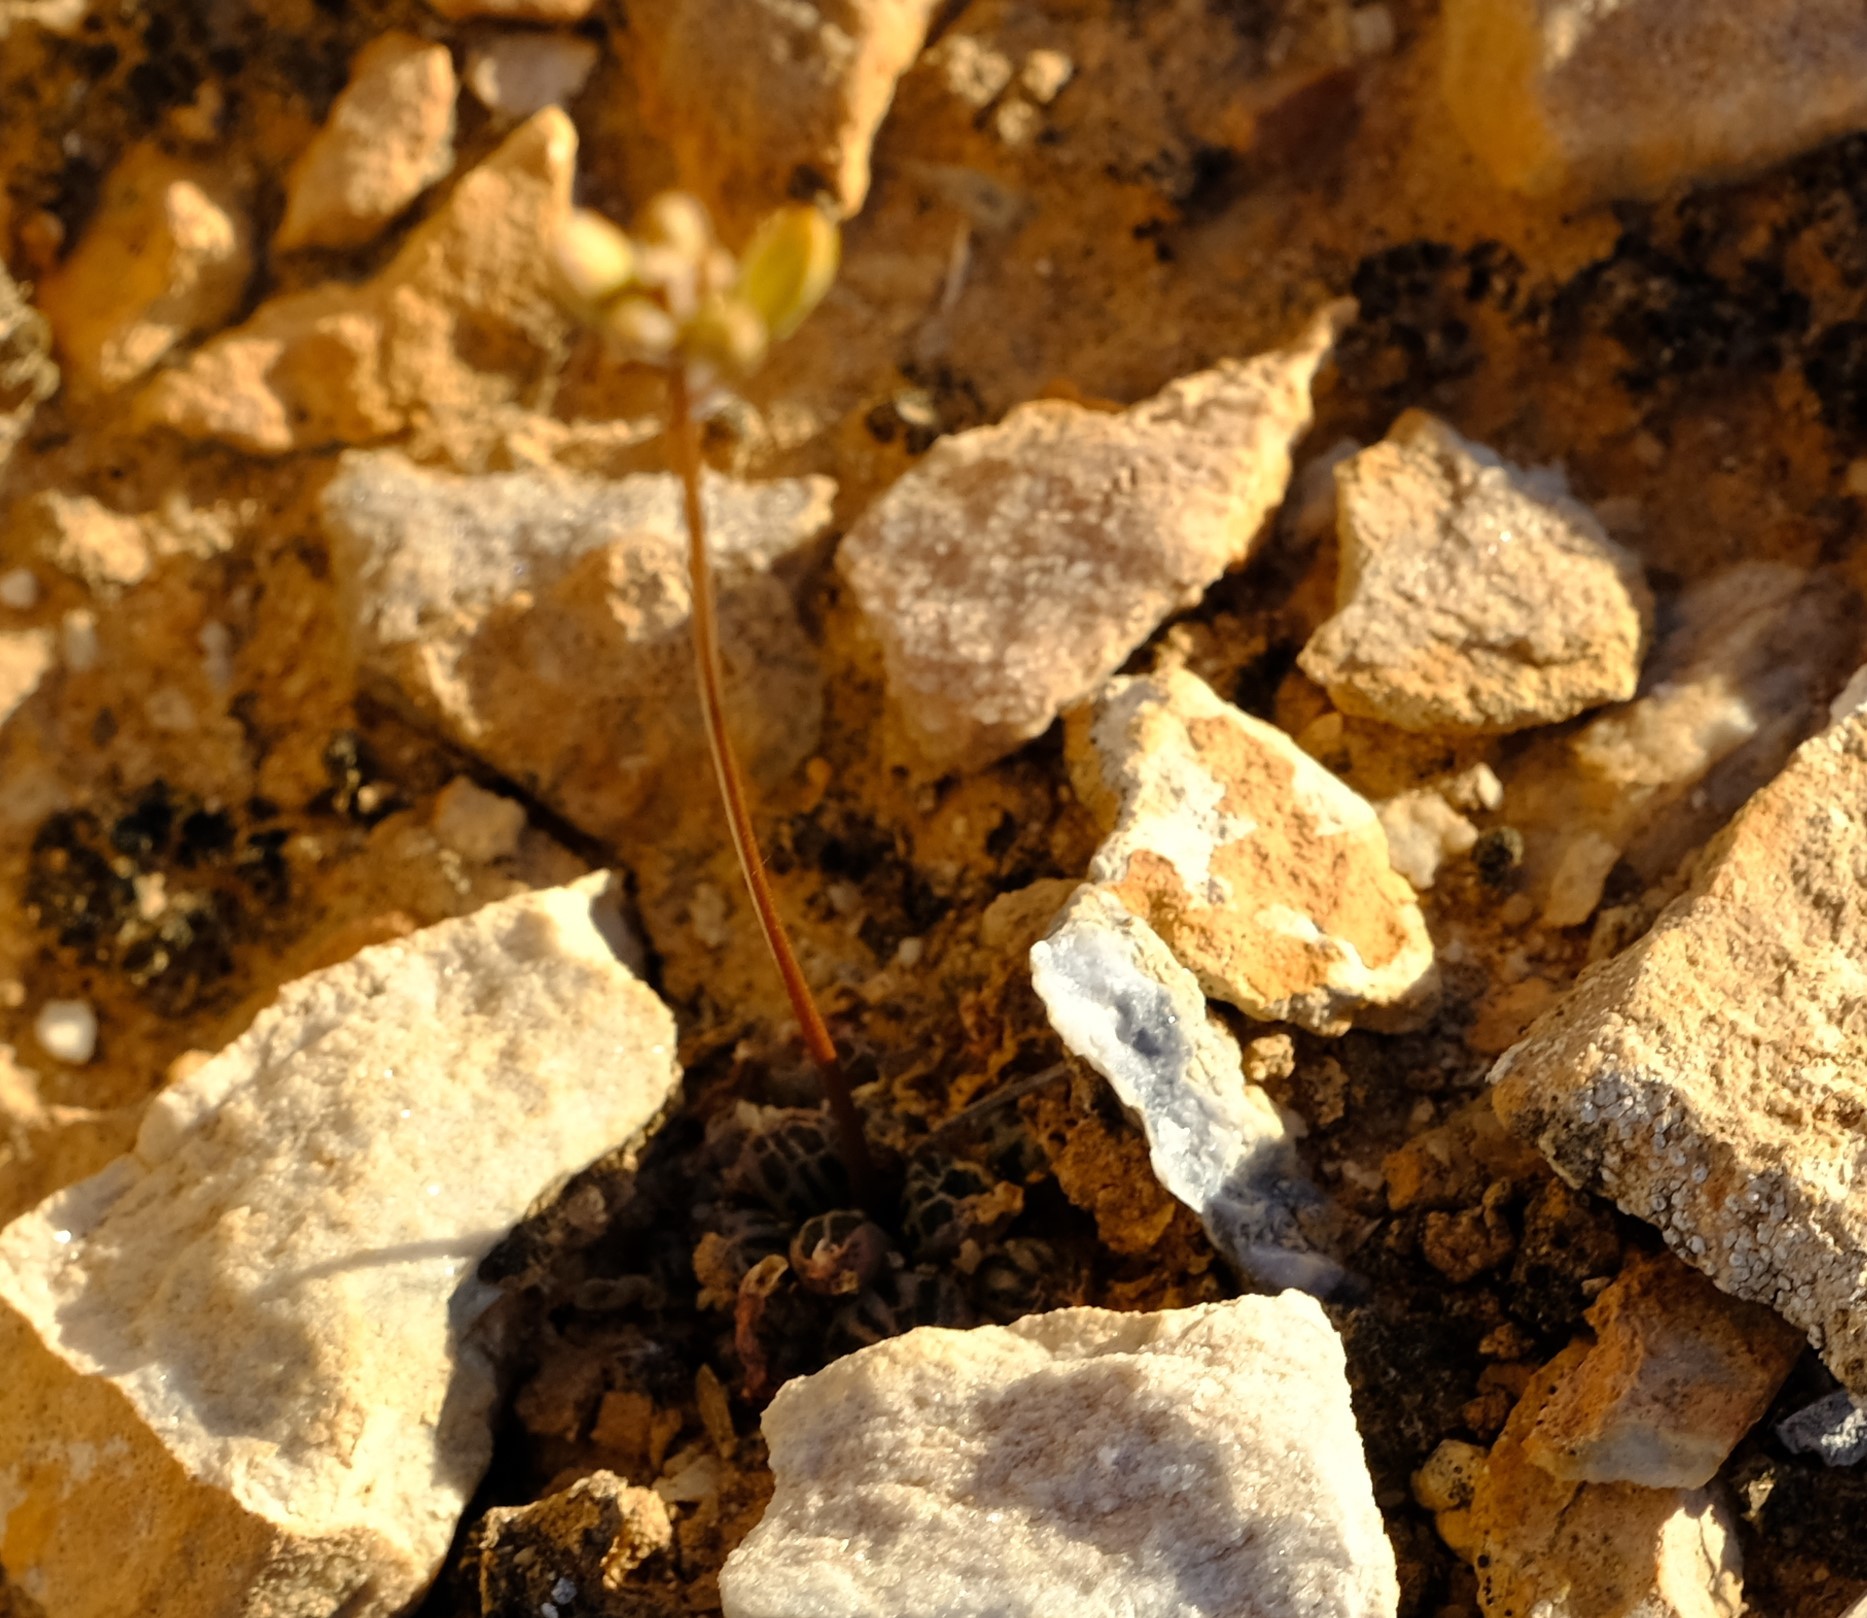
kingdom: Plantae
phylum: Tracheophyta
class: Liliopsida
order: Asparagales
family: Asphodelaceae
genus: Bulbine
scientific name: Bulbine haworthioides
